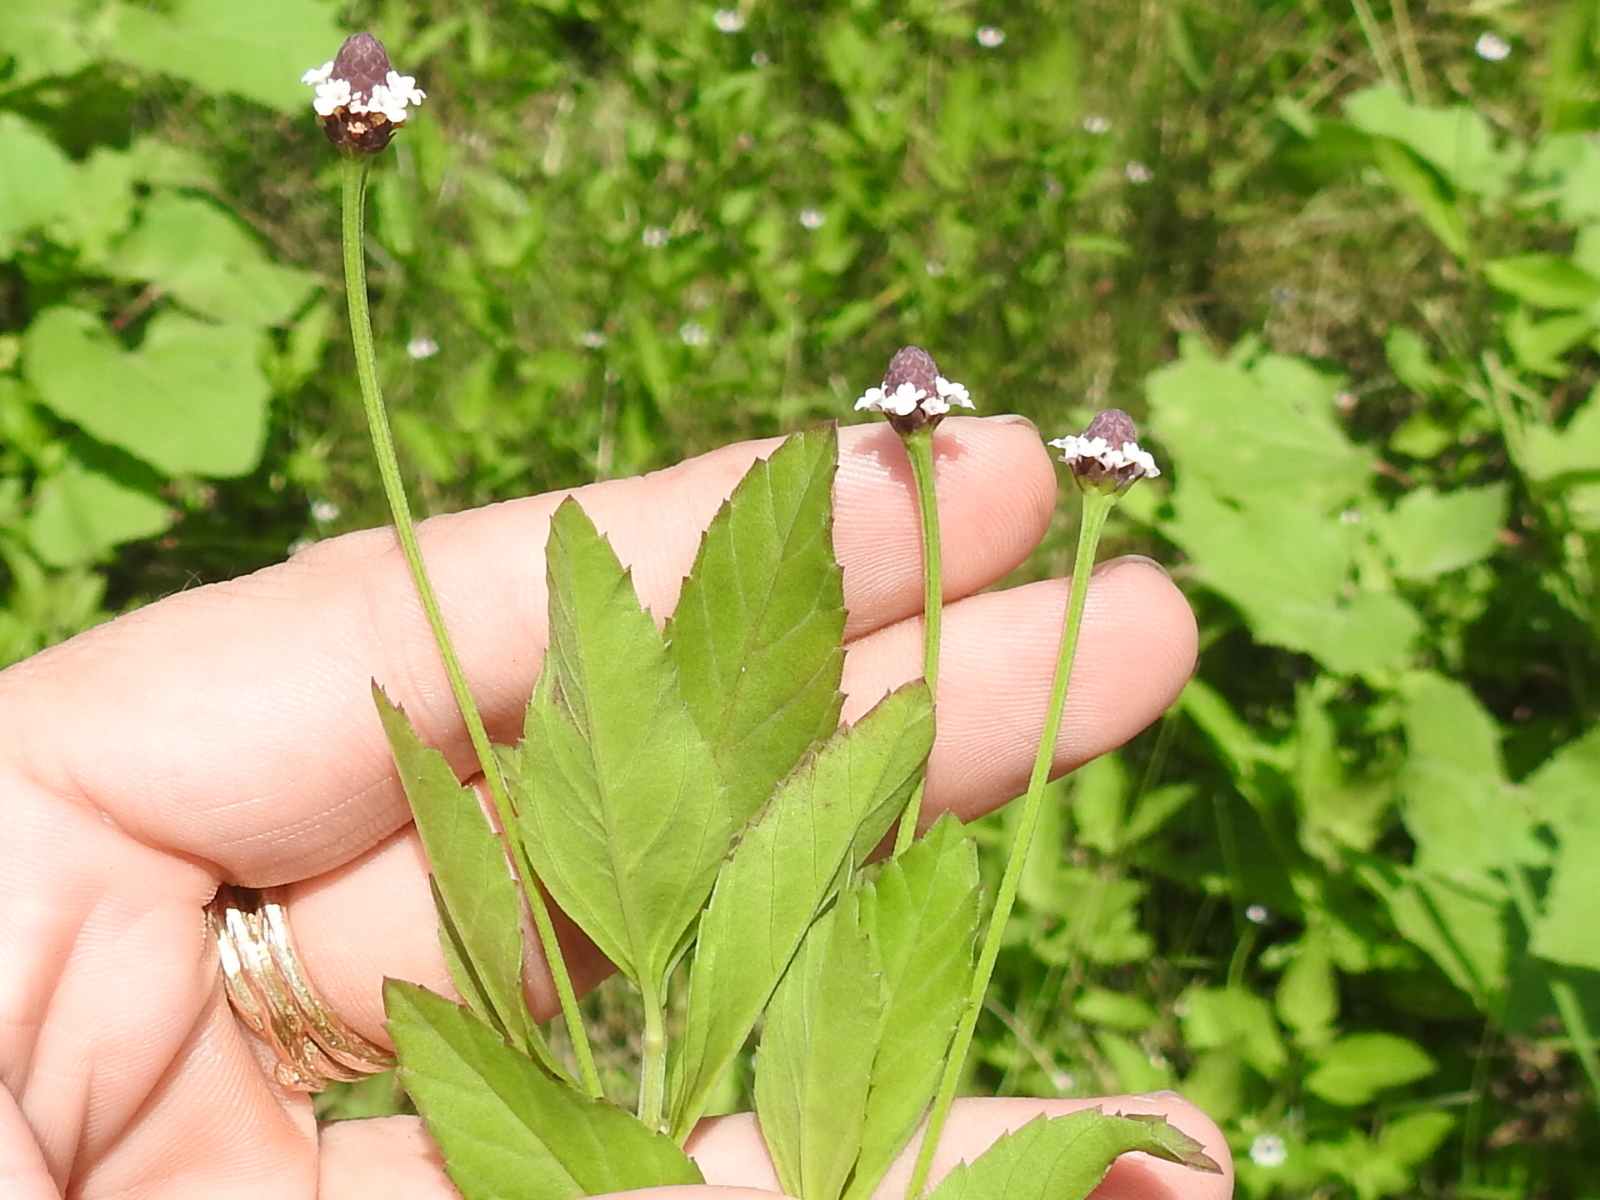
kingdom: Plantae
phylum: Tracheophyta
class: Magnoliopsida
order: Lamiales
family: Verbenaceae
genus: Phyla
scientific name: Phyla lanceolata
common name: Northern fogfruit
